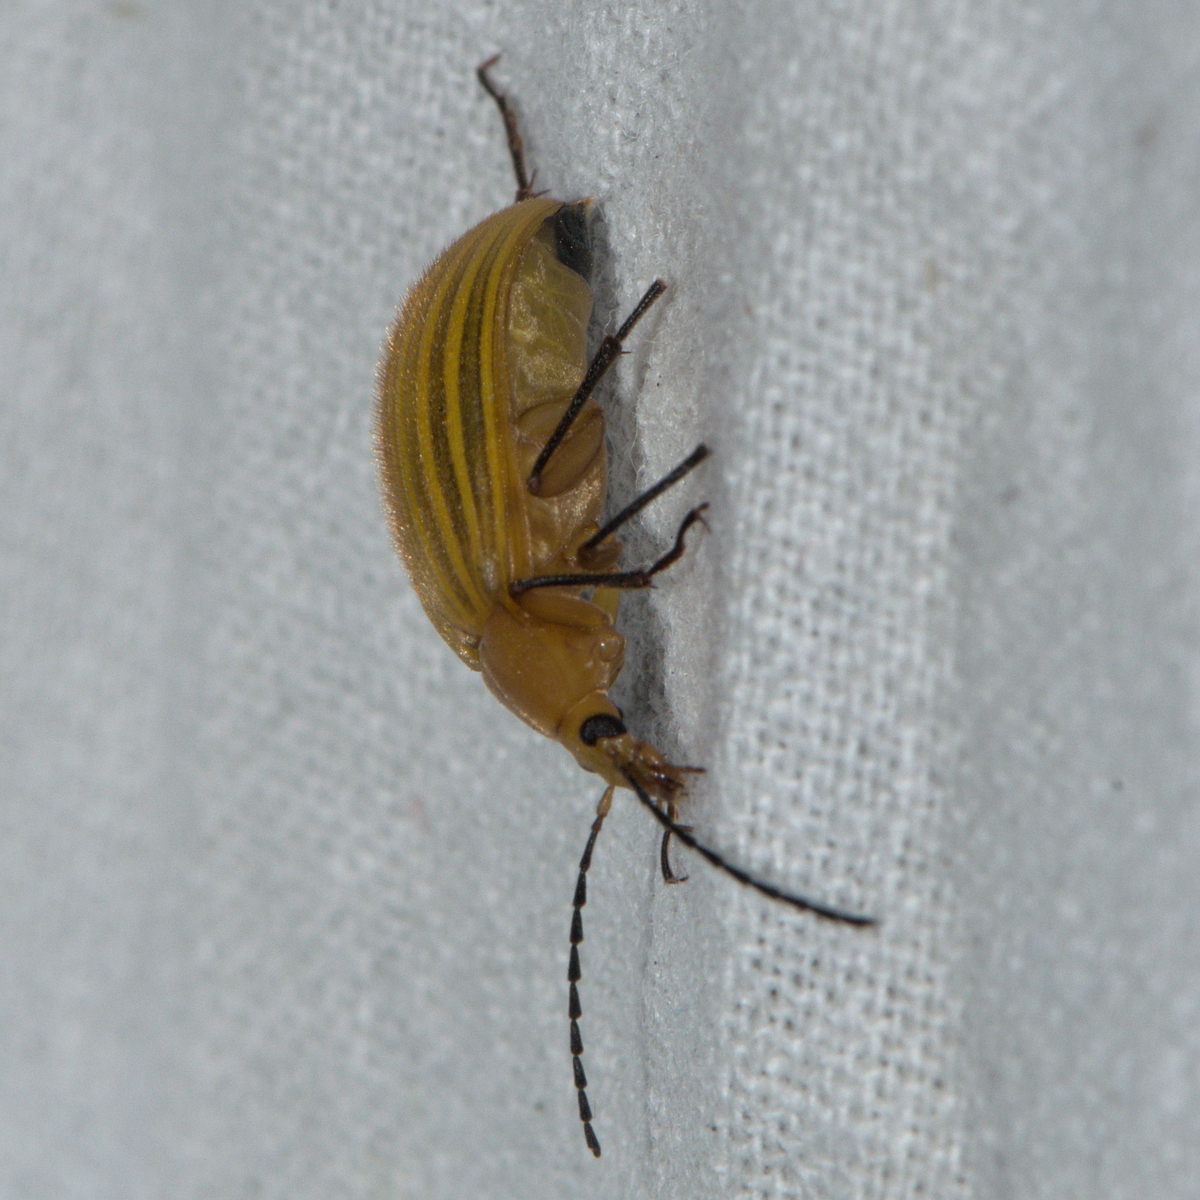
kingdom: Animalia
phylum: Arthropoda
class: Insecta
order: Coleoptera
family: Tenebrionidae
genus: Cistelomorpha
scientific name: Cistelomorpha
